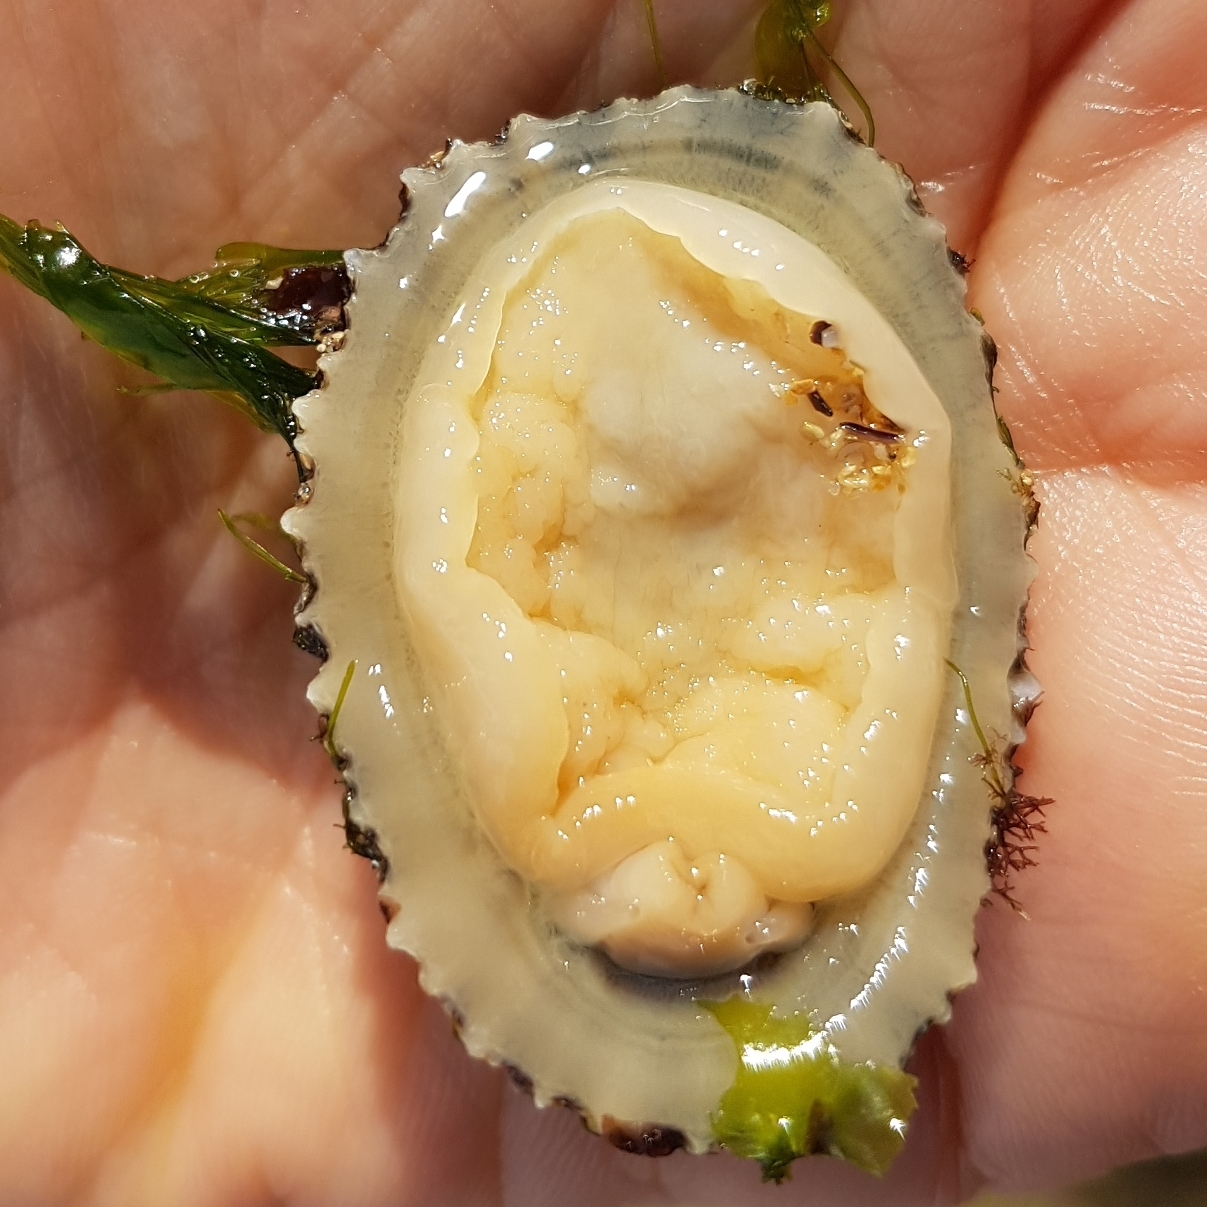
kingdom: Animalia
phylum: Mollusca
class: Gastropoda
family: Patellidae
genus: Patella
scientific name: Patella ulyssiponensis
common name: China limpet
